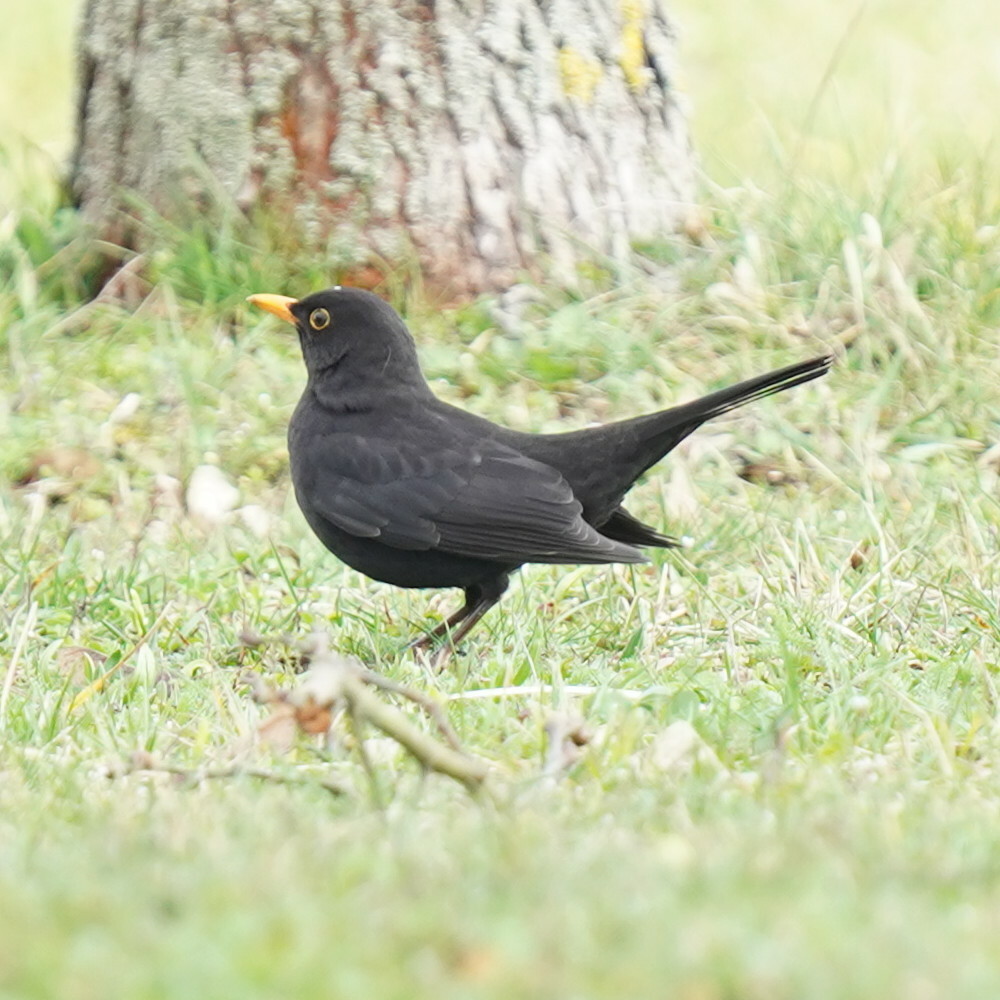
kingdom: Animalia
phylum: Chordata
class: Aves
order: Passeriformes
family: Turdidae
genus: Turdus
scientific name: Turdus merula
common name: Common blackbird
